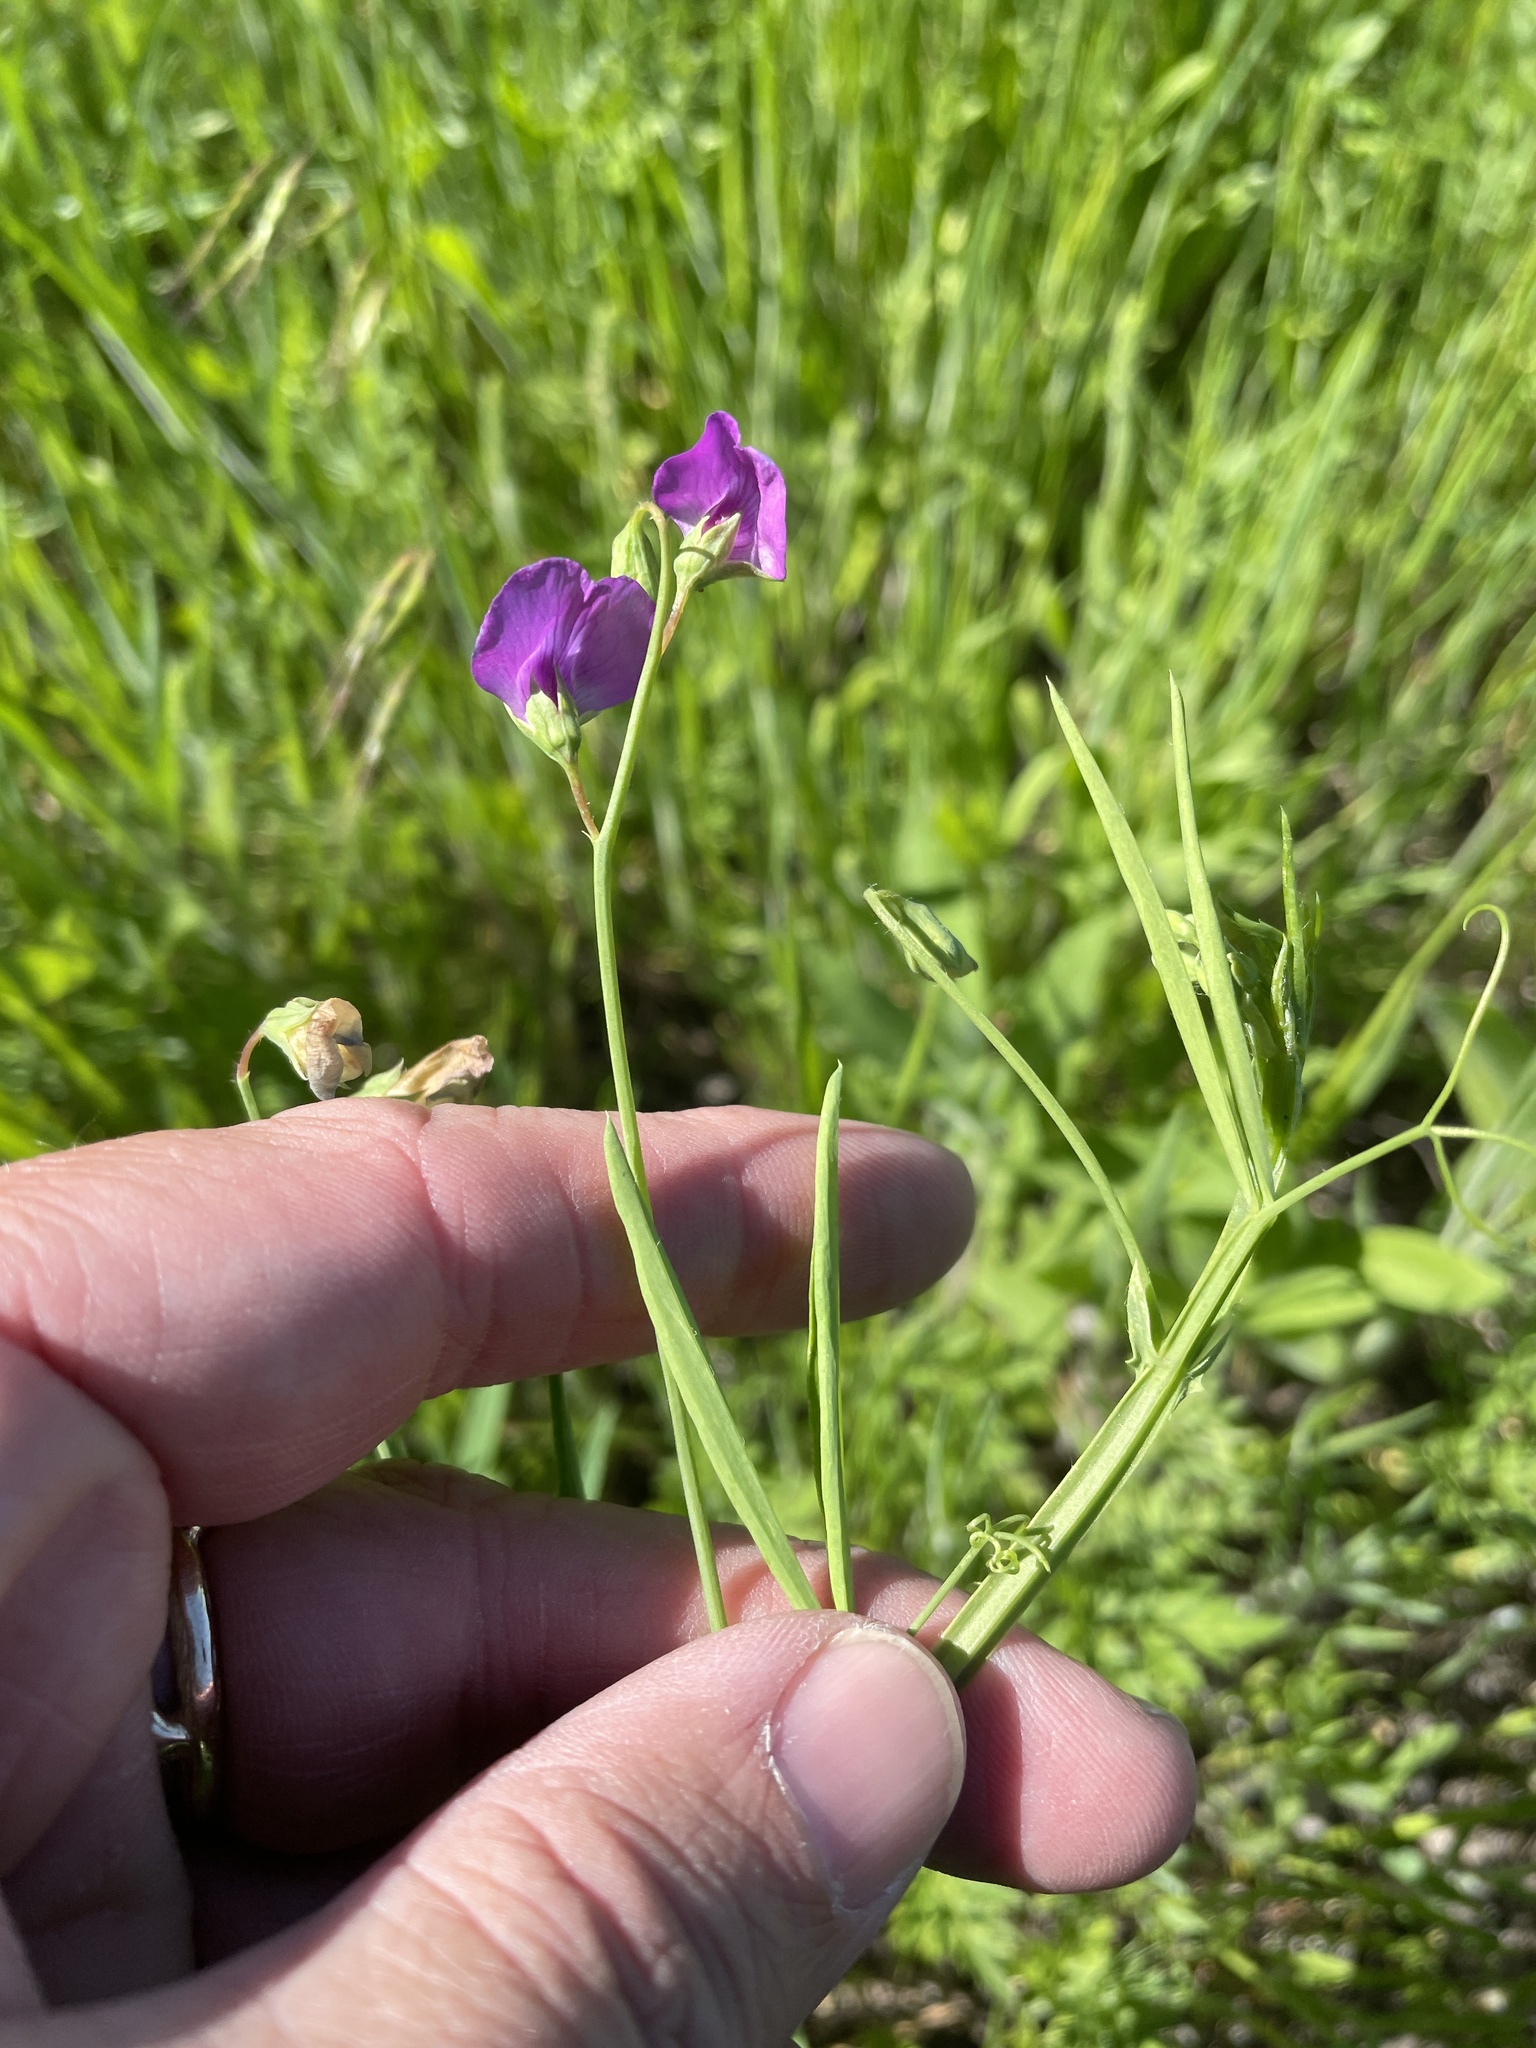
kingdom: Plantae
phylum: Tracheophyta
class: Magnoliopsida
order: Fabales
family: Fabaceae
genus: Lathyrus
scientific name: Lathyrus hirsutus
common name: Hairy vetchling
